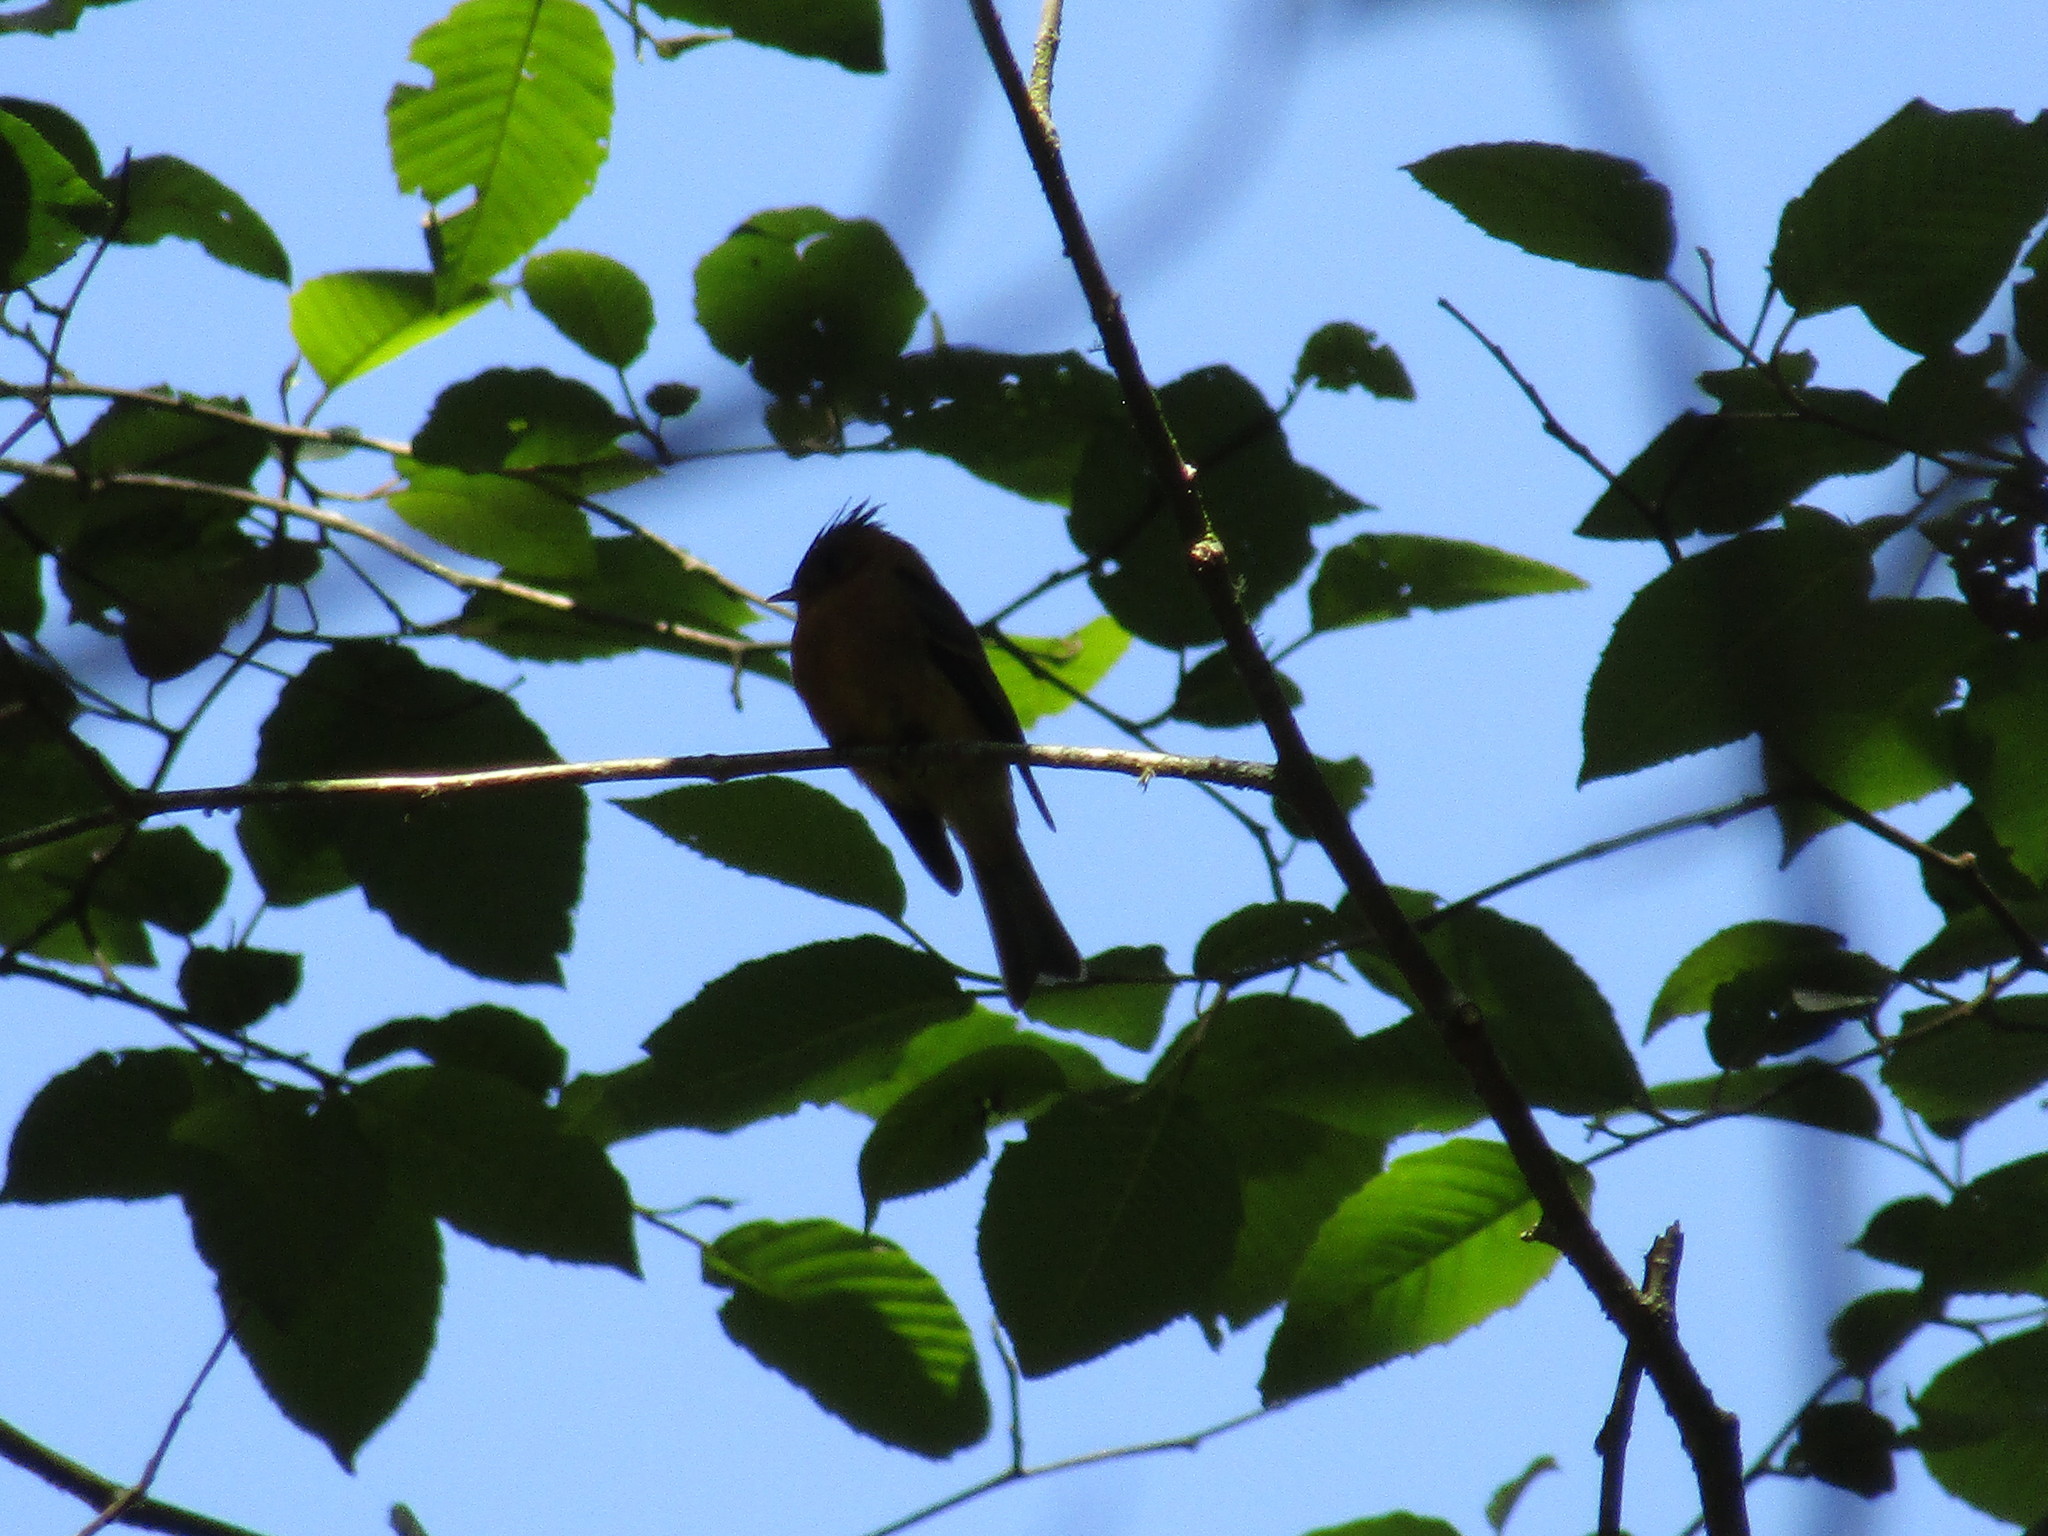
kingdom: Animalia
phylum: Chordata
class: Aves
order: Passeriformes
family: Tyrannidae
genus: Mitrephanes
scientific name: Mitrephanes phaeocercus
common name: Northern tufted flycatcher
